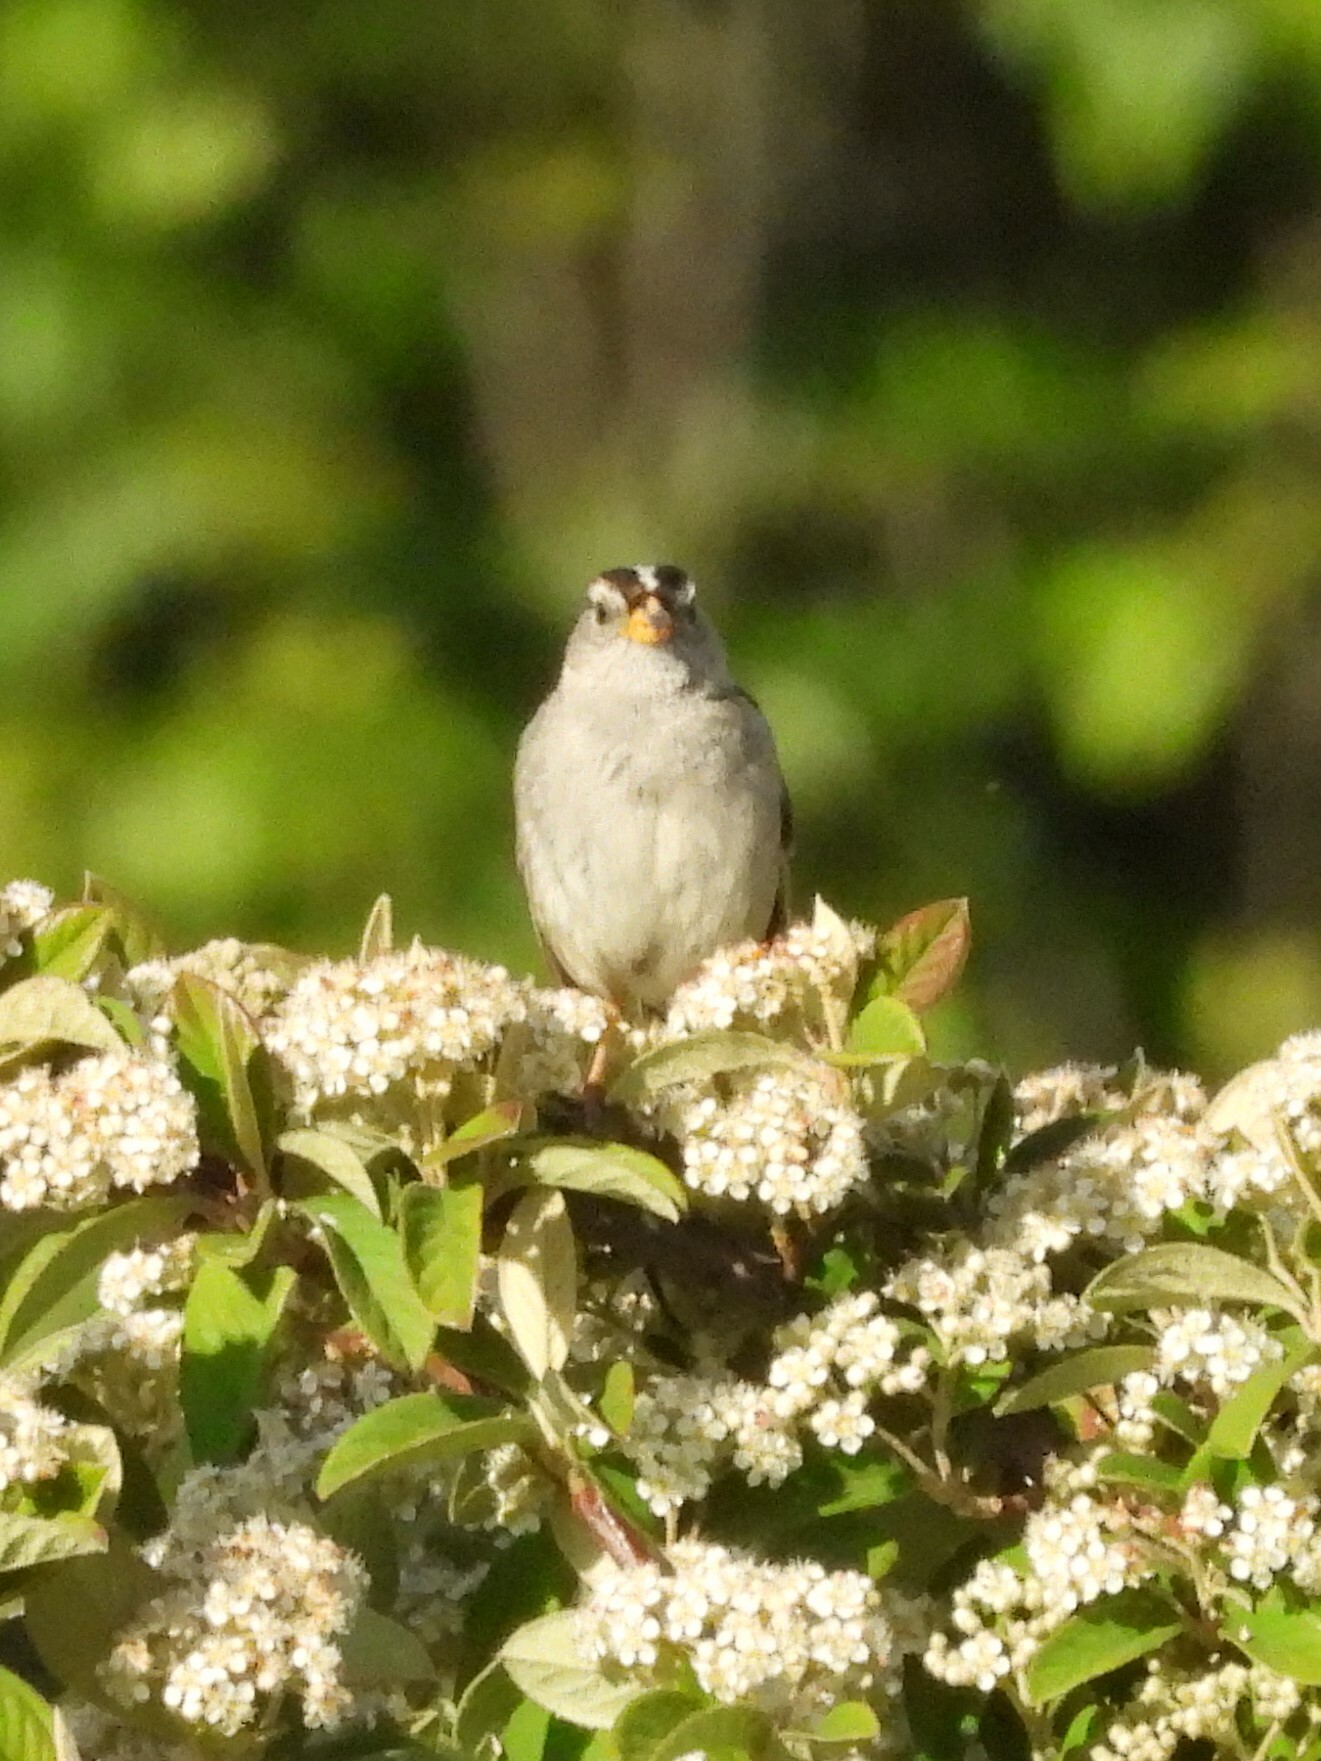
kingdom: Animalia
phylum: Chordata
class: Aves
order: Passeriformes
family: Passerellidae
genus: Zonotrichia
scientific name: Zonotrichia leucophrys
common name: White-crowned sparrow
